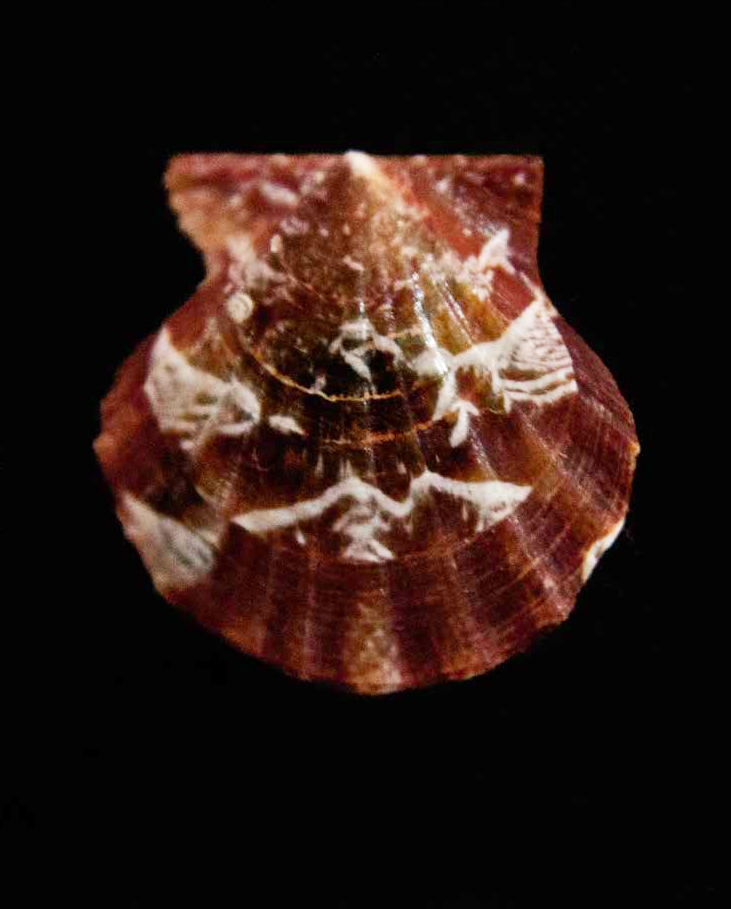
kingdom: Animalia
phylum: Mollusca
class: Bivalvia
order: Pectinida
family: Pectinidae
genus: Flexopecten
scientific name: Flexopecten glaber
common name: Smooth scallop
